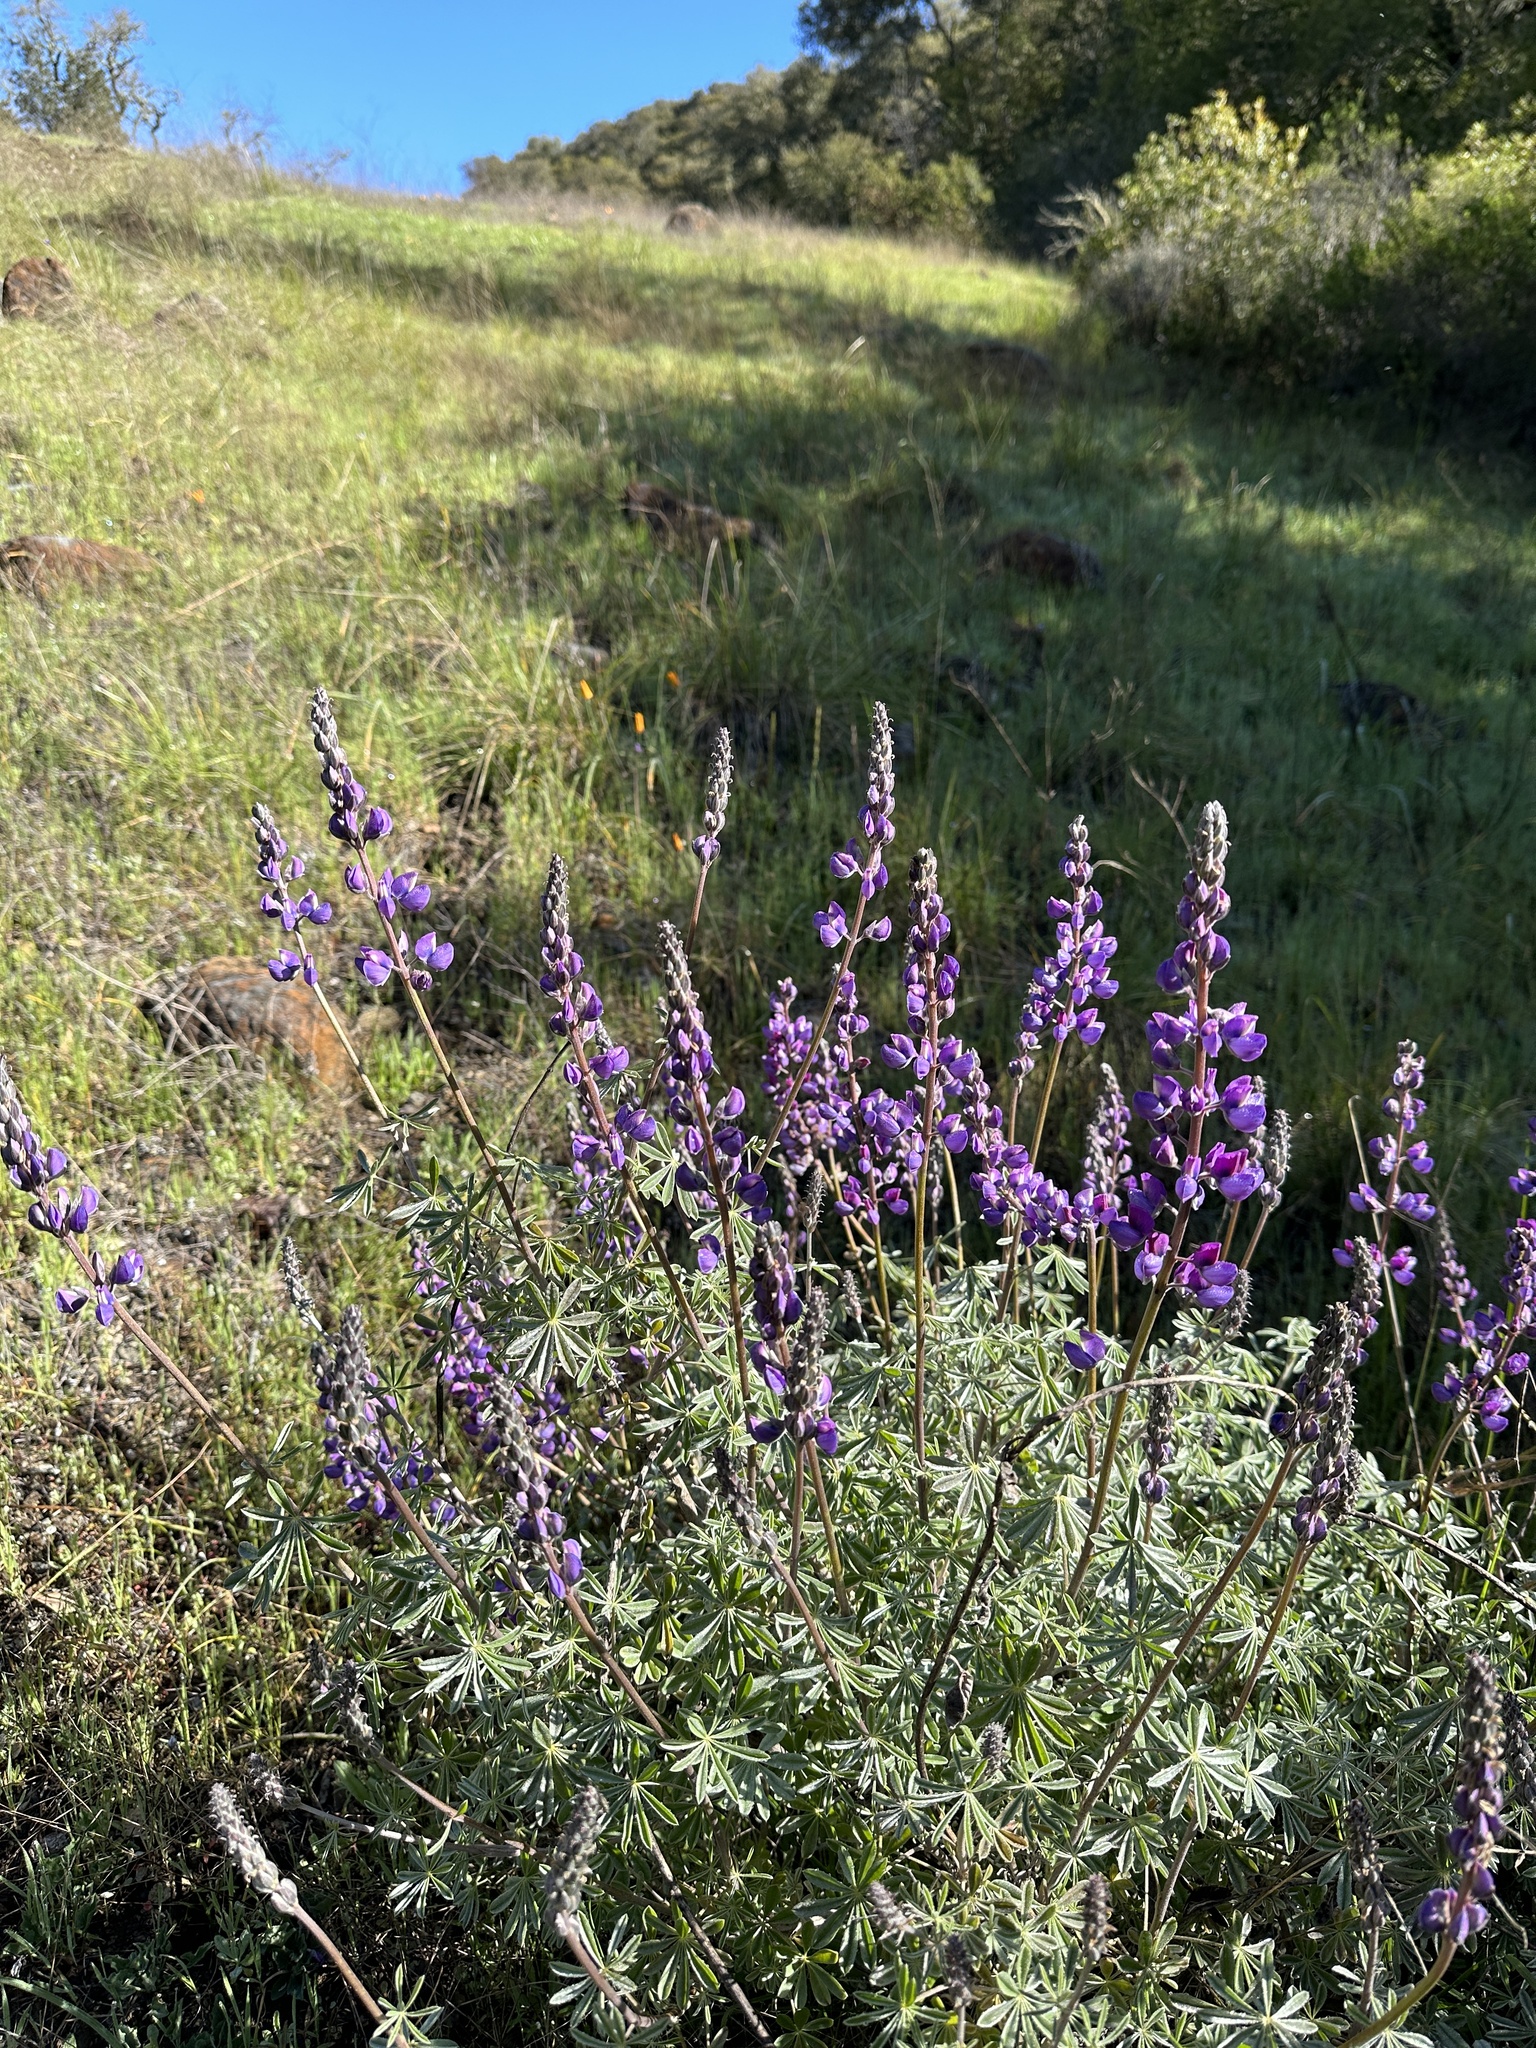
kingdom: Plantae
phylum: Tracheophyta
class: Magnoliopsida
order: Fabales
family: Fabaceae
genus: Lupinus
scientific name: Lupinus albifrons
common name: Foothill lupine
